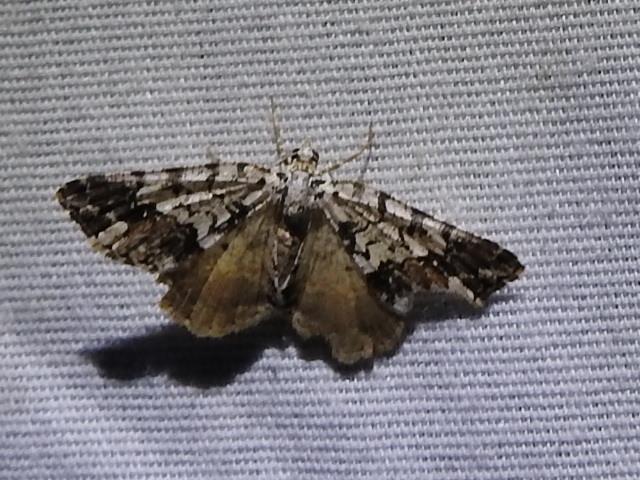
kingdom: Animalia
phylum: Arthropoda
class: Insecta
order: Lepidoptera
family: Geometridae
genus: Macaria
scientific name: Macaria graphidaria
